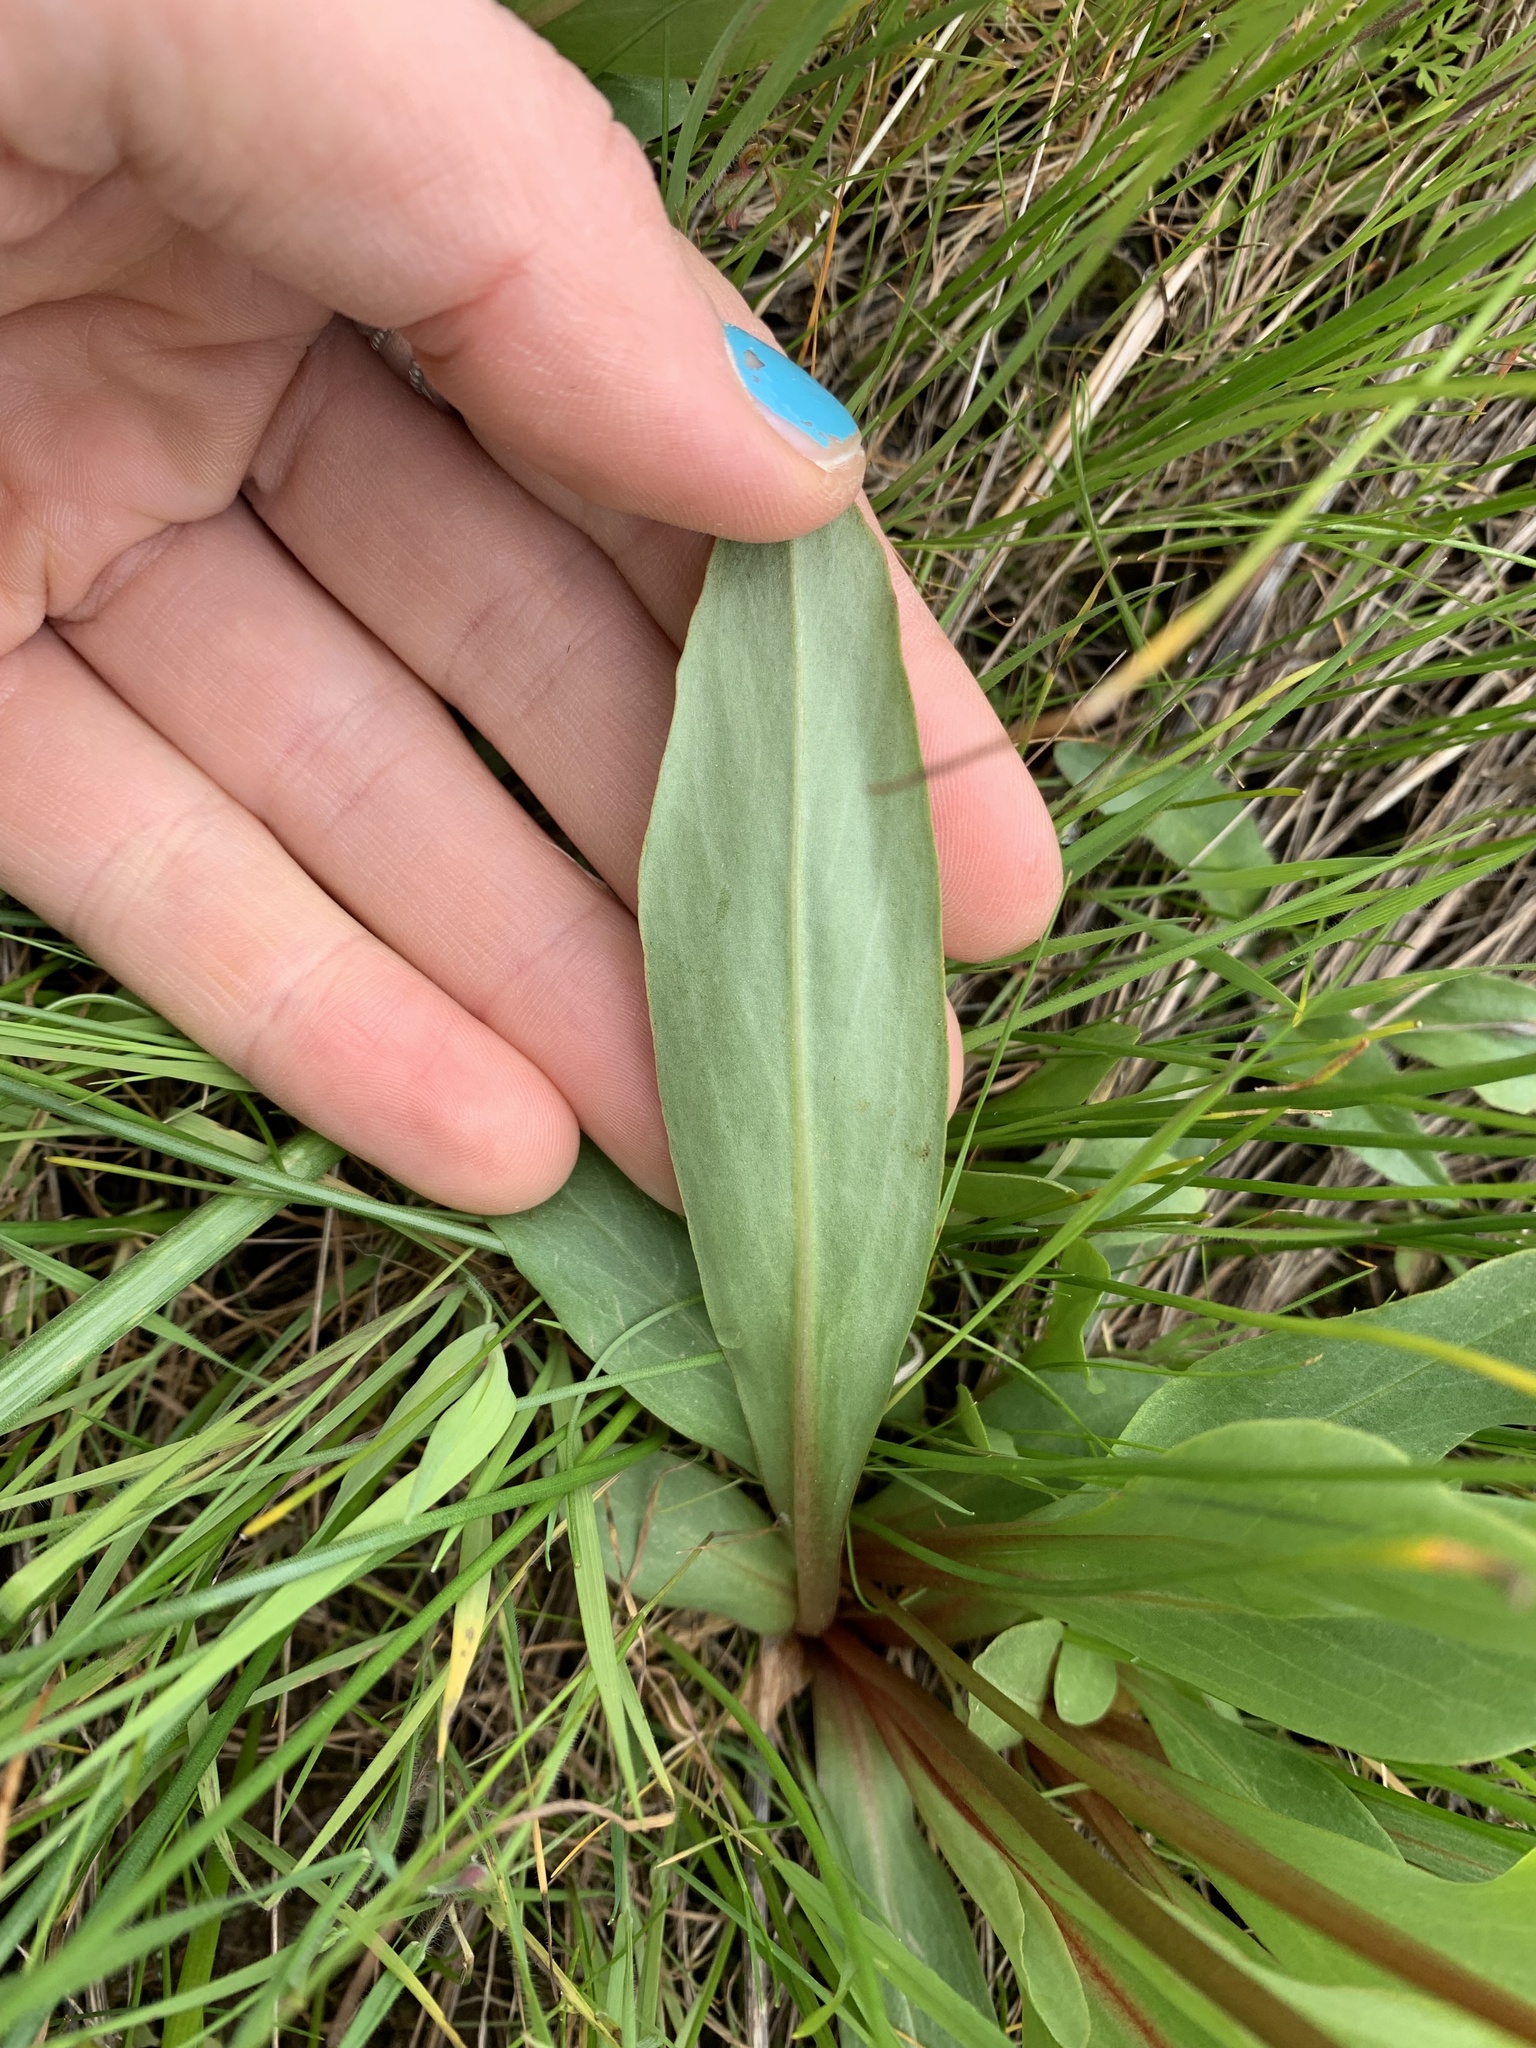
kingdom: Plantae
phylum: Tracheophyta
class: Magnoliopsida
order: Ericales
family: Primulaceae
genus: Dodecatheon
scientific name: Dodecatheon pulchellum
